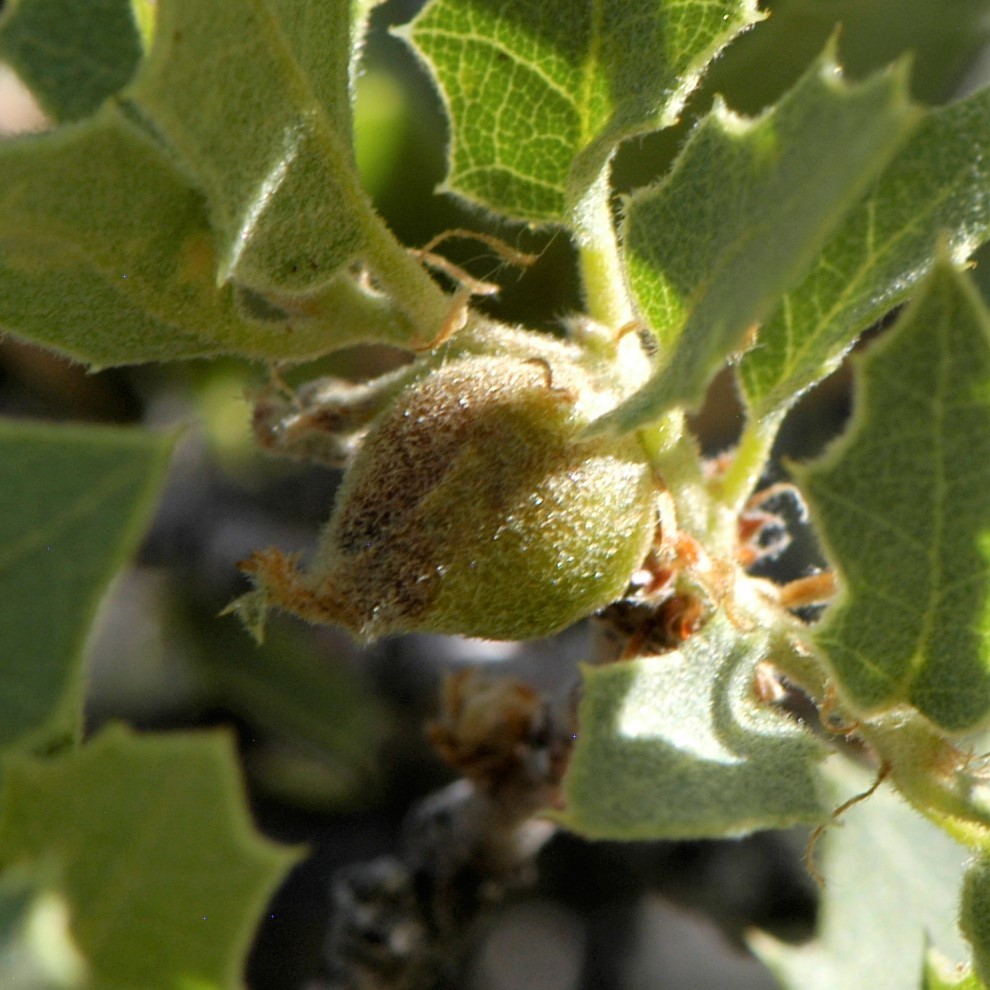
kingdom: Animalia
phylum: Arthropoda
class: Insecta
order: Hymenoptera
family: Cynipidae
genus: Andricus
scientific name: Andricus
